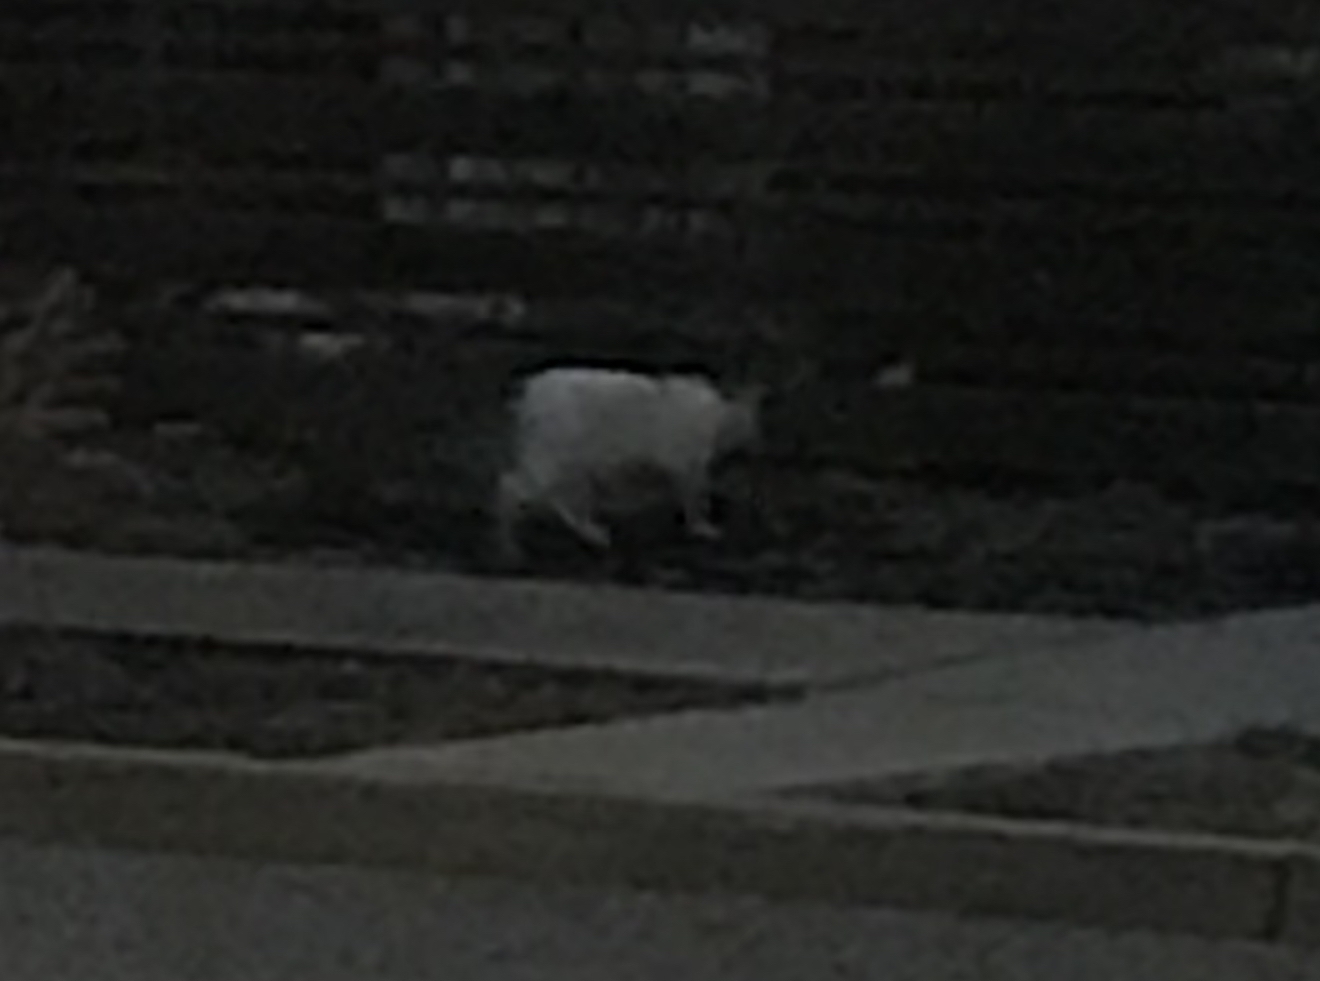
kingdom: Animalia
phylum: Chordata
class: Mammalia
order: Carnivora
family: Felidae
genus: Felis
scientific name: Felis catus
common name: Domestic cat
